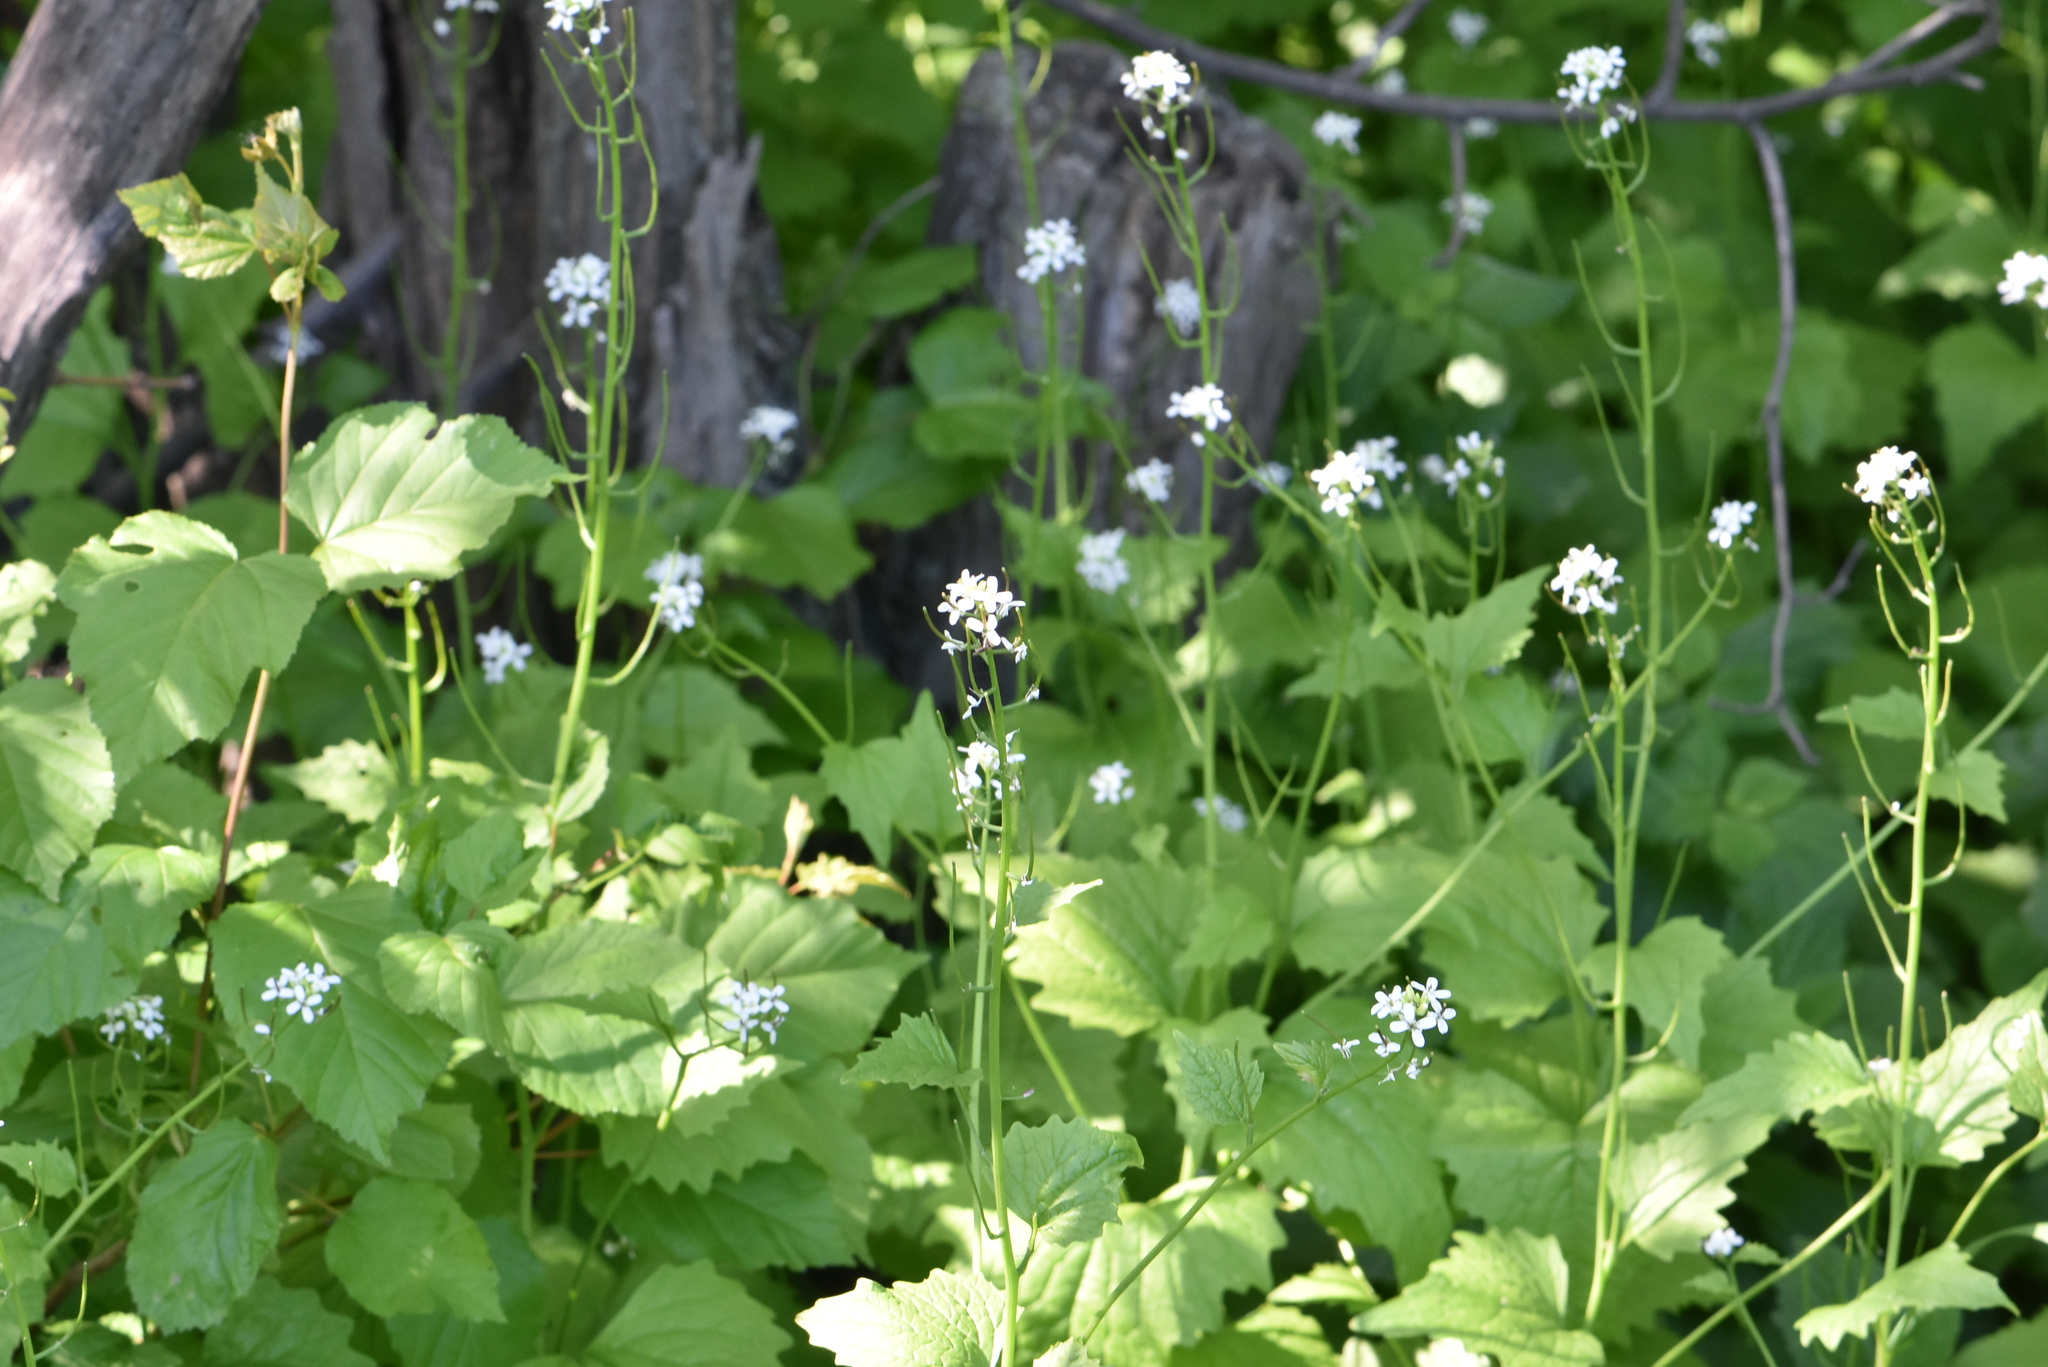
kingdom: Plantae
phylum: Tracheophyta
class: Magnoliopsida
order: Brassicales
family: Brassicaceae
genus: Alliaria
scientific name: Alliaria petiolata
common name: Garlic mustard
